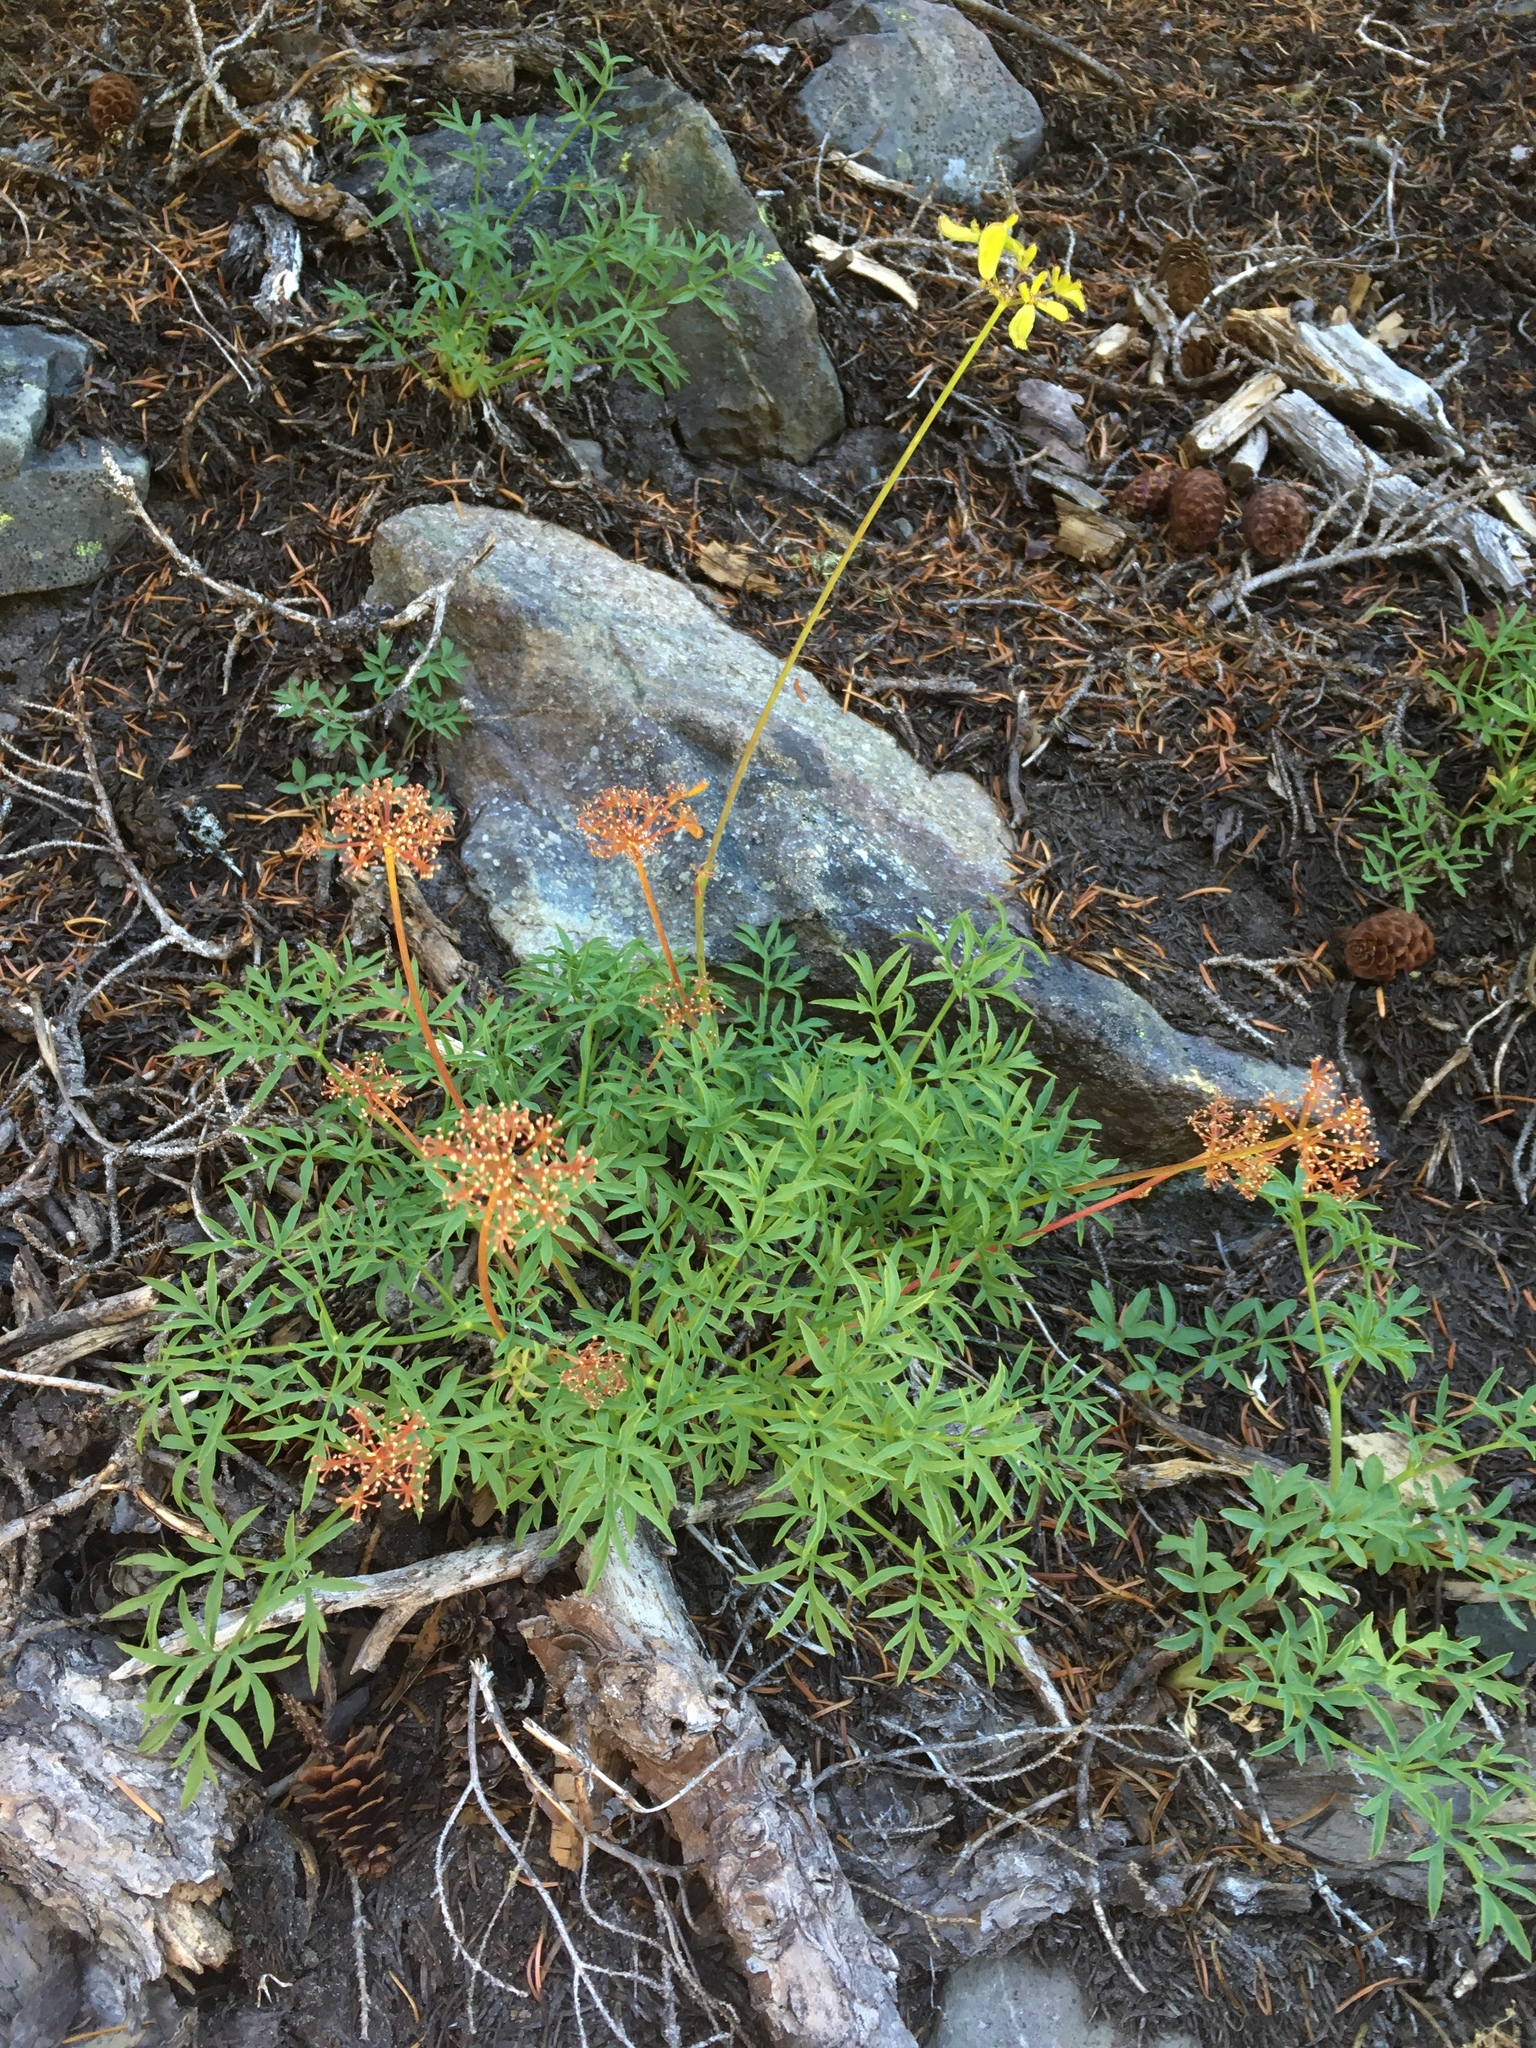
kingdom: Plantae
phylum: Tracheophyta
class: Magnoliopsida
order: Apiales
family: Apiaceae
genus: Lomatium
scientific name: Lomatium brandegeei
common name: Brandegee's desert-parsley
